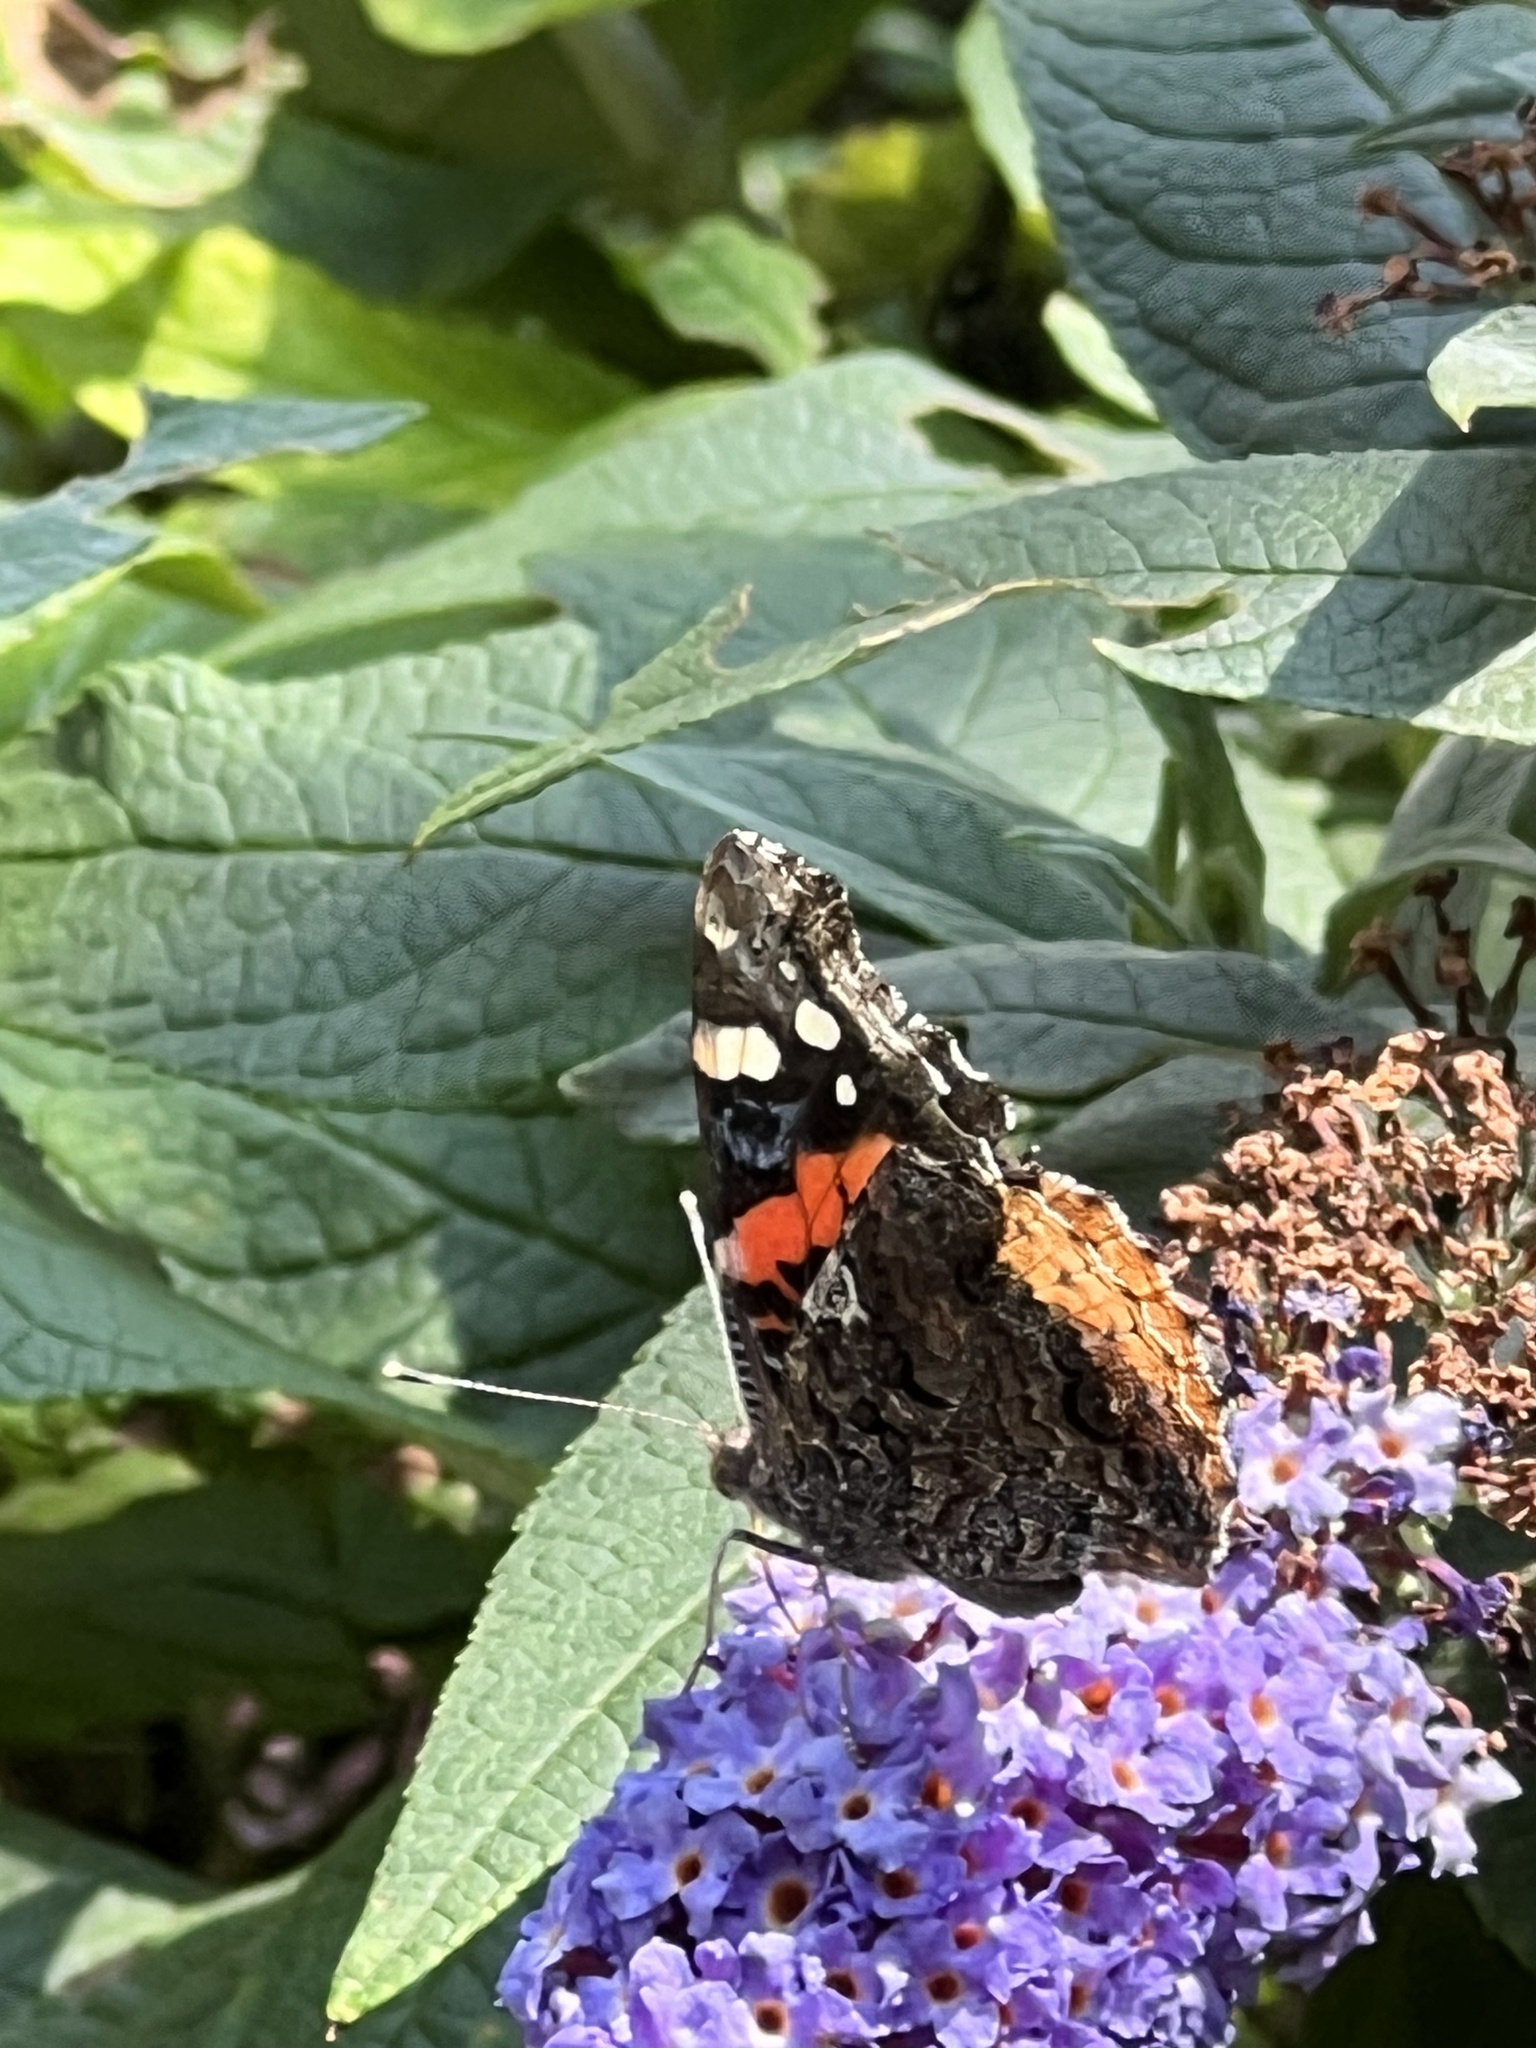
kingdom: Animalia
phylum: Arthropoda
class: Insecta
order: Lepidoptera
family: Nymphalidae
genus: Vanessa
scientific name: Vanessa atalanta
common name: Red admiral
